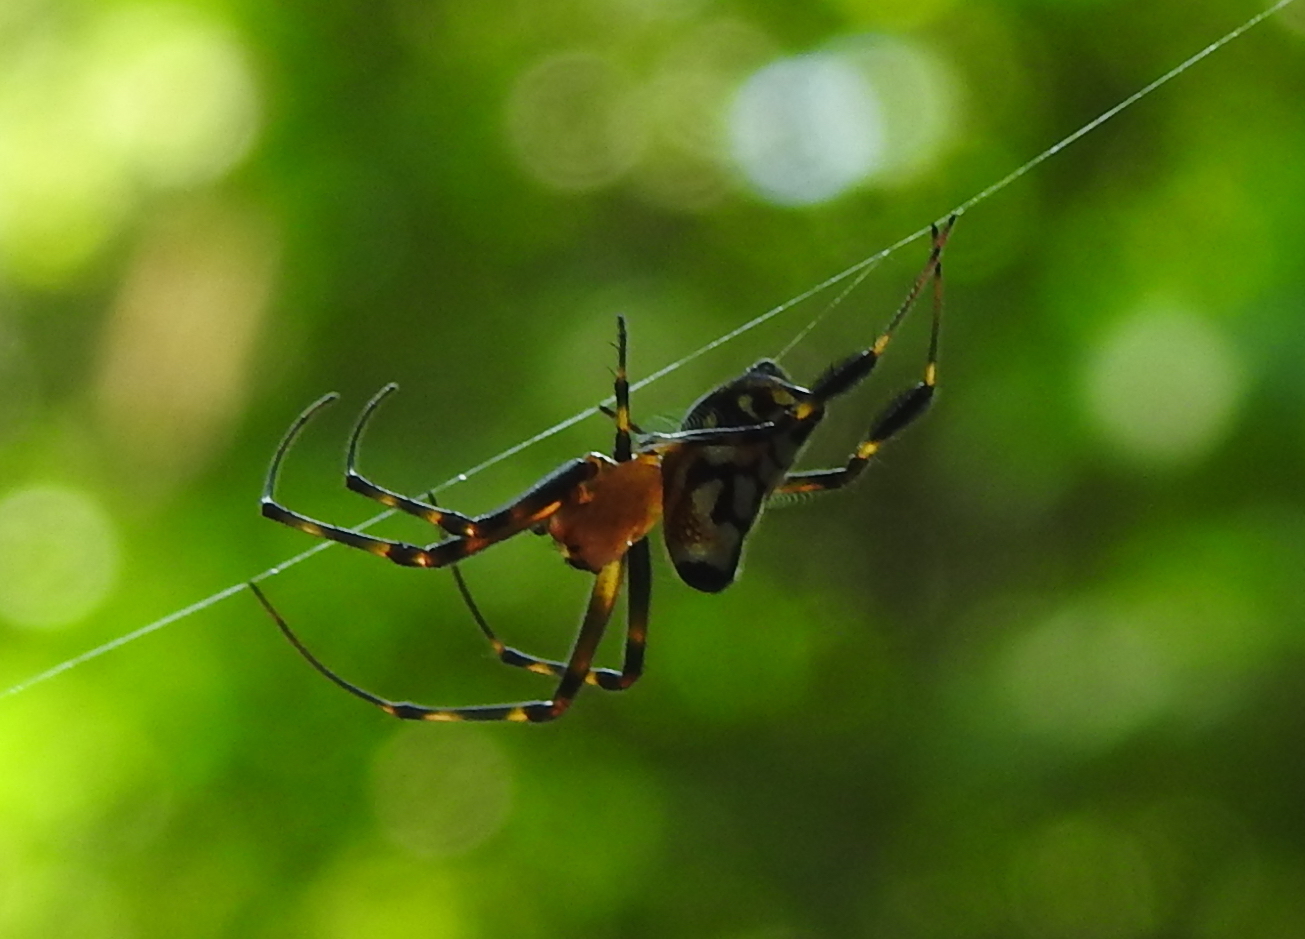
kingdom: Animalia
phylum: Arthropoda
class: Arachnida
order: Araneae
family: Tetragnathidae
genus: Leucauge
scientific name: Leucauge fastigata
